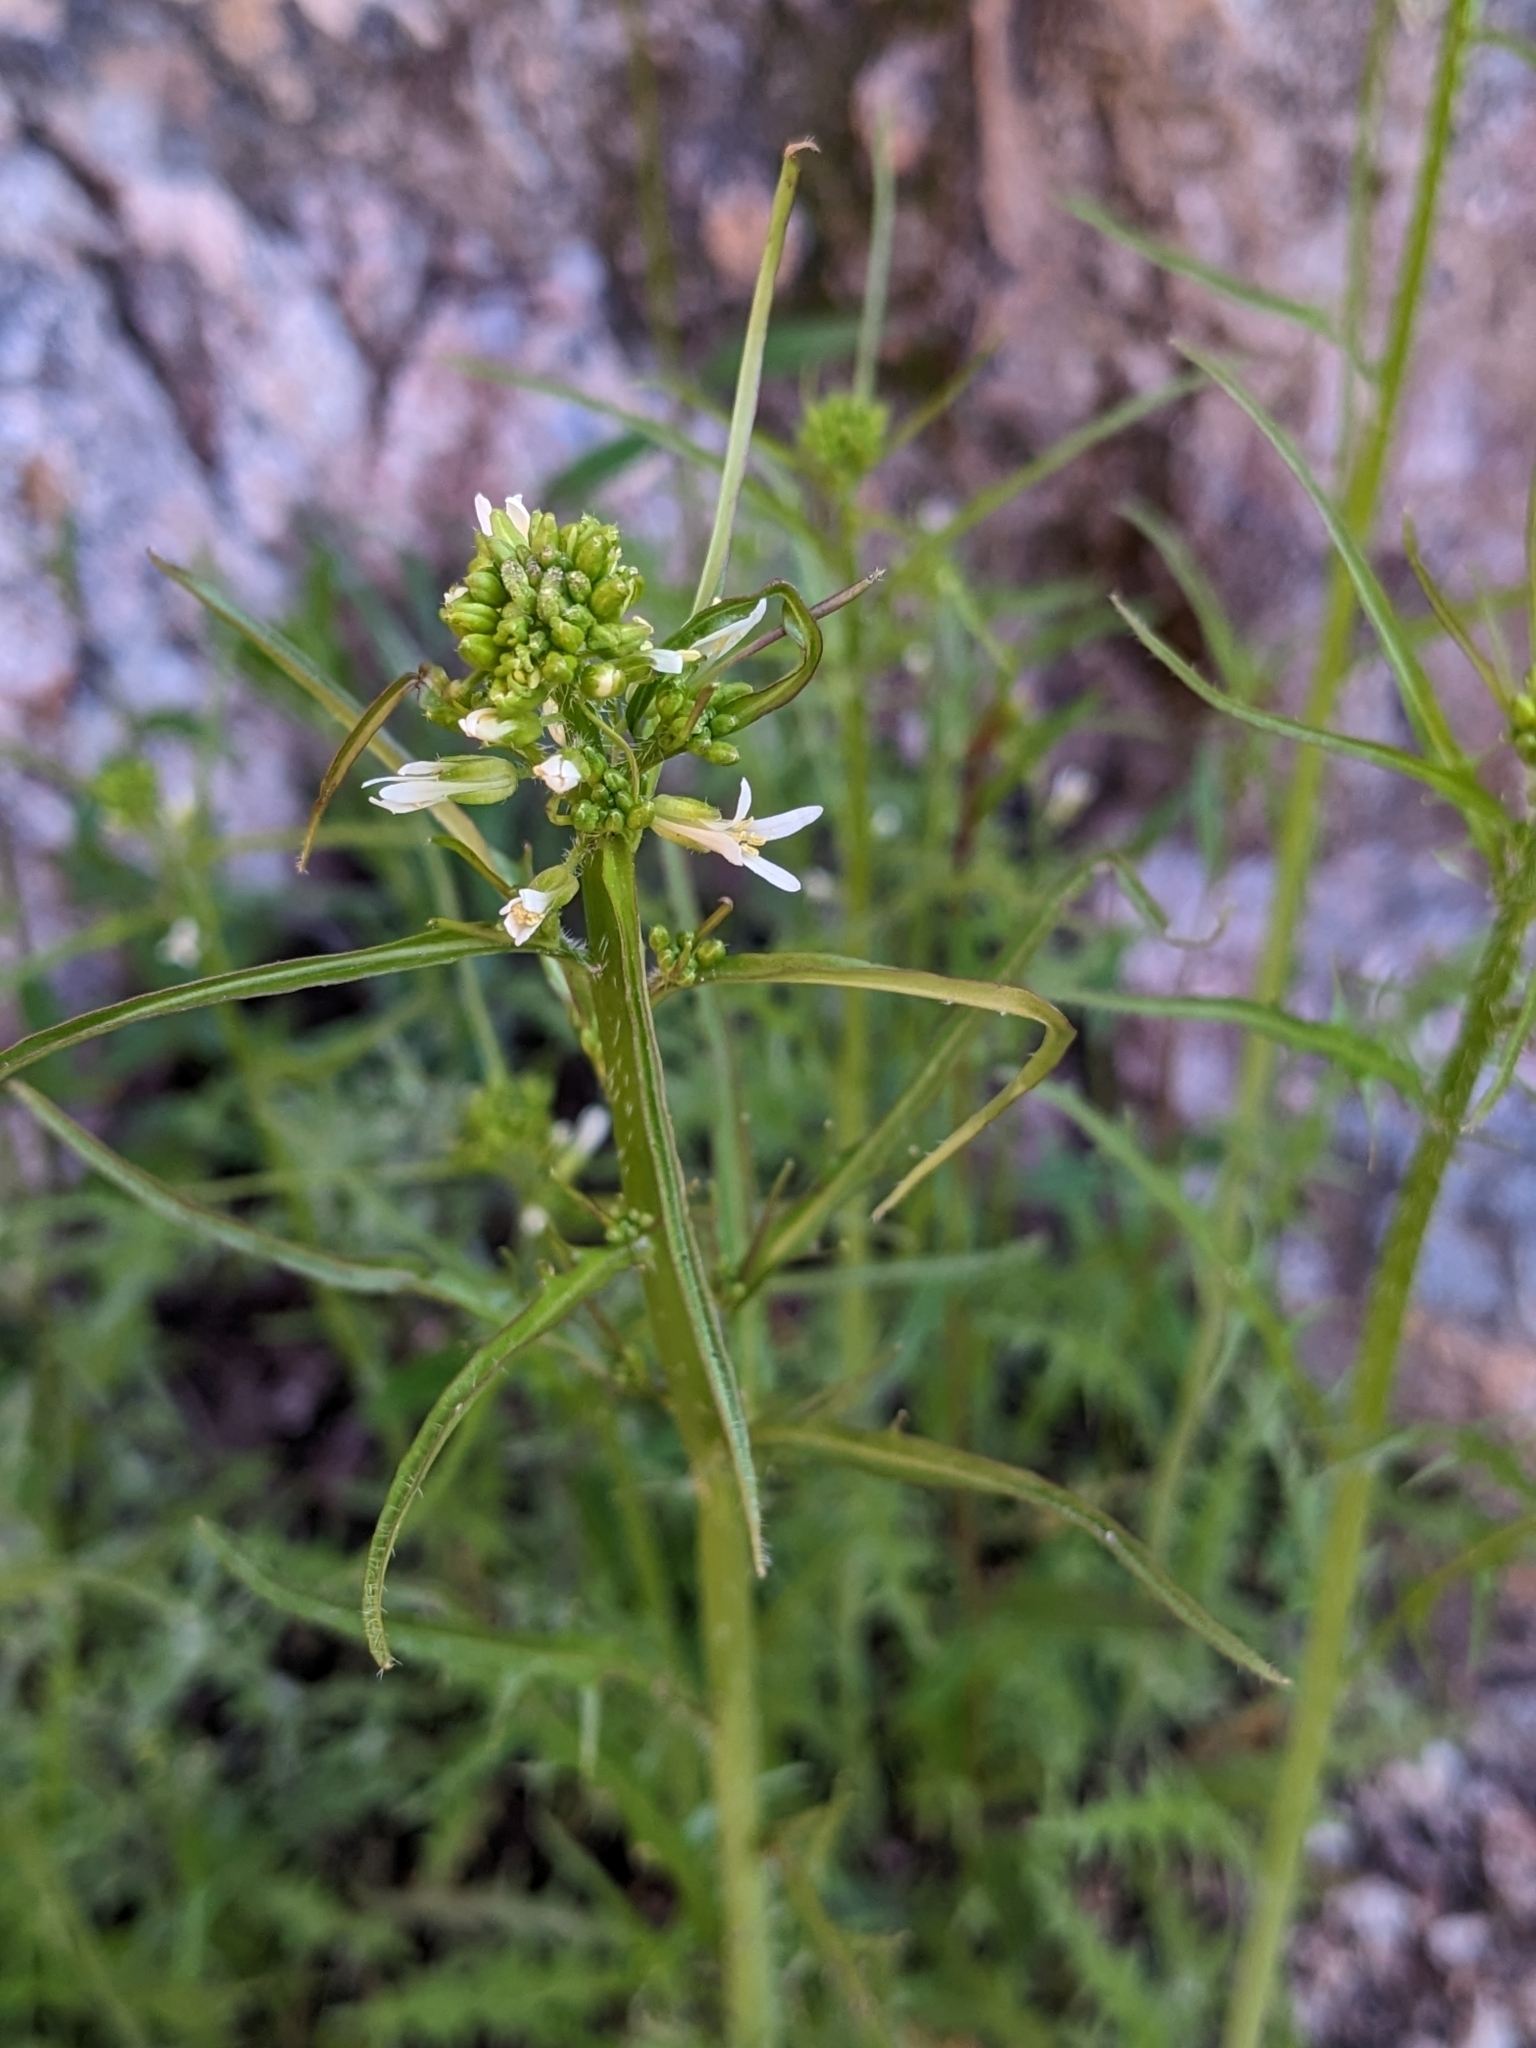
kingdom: Plantae
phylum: Tracheophyta
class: Magnoliopsida
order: Brassicales
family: Brassicaceae
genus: Streptanthus
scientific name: Streptanthus lasiophyllus
